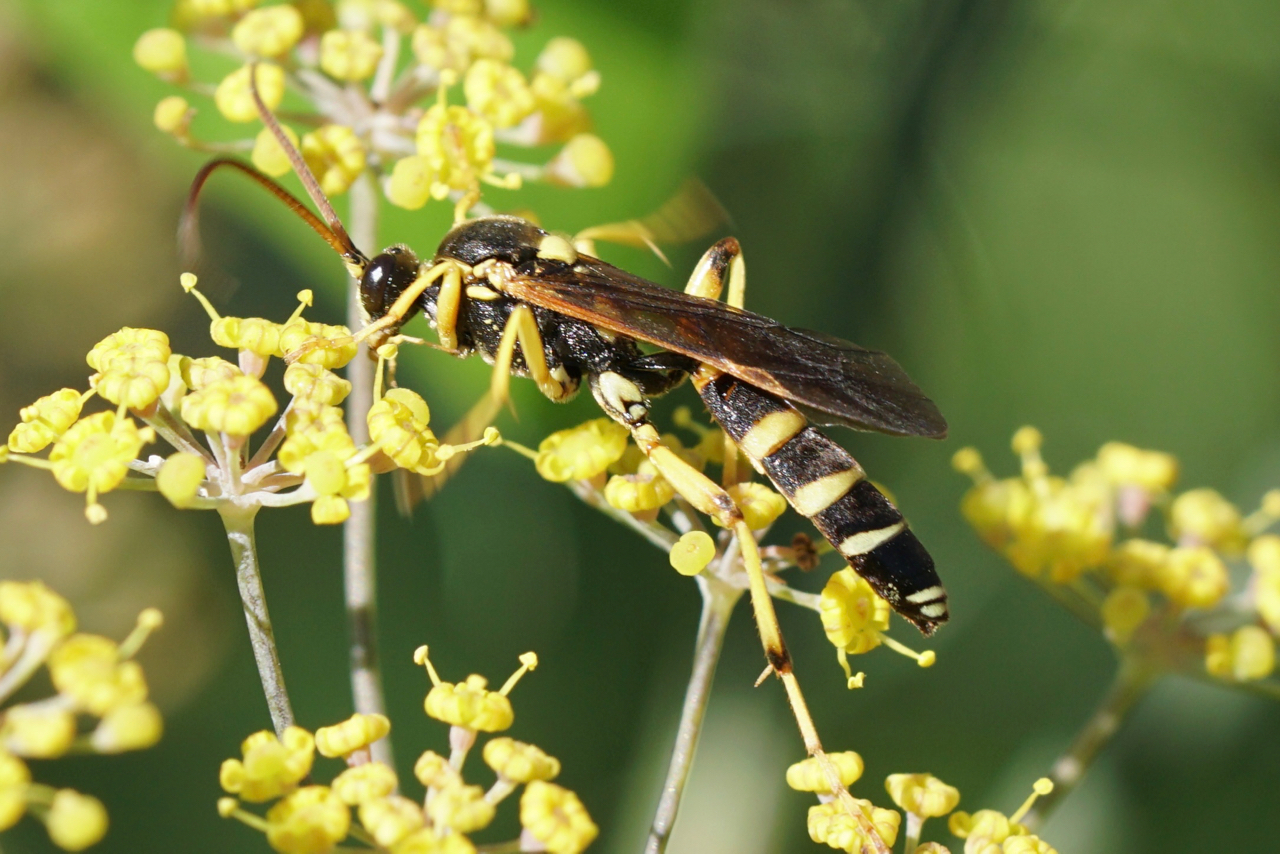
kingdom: Animalia
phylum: Arthropoda
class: Insecta
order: Hymenoptera
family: Ichneumonidae
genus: Ichneumon
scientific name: Ichneumon ambulatorius
